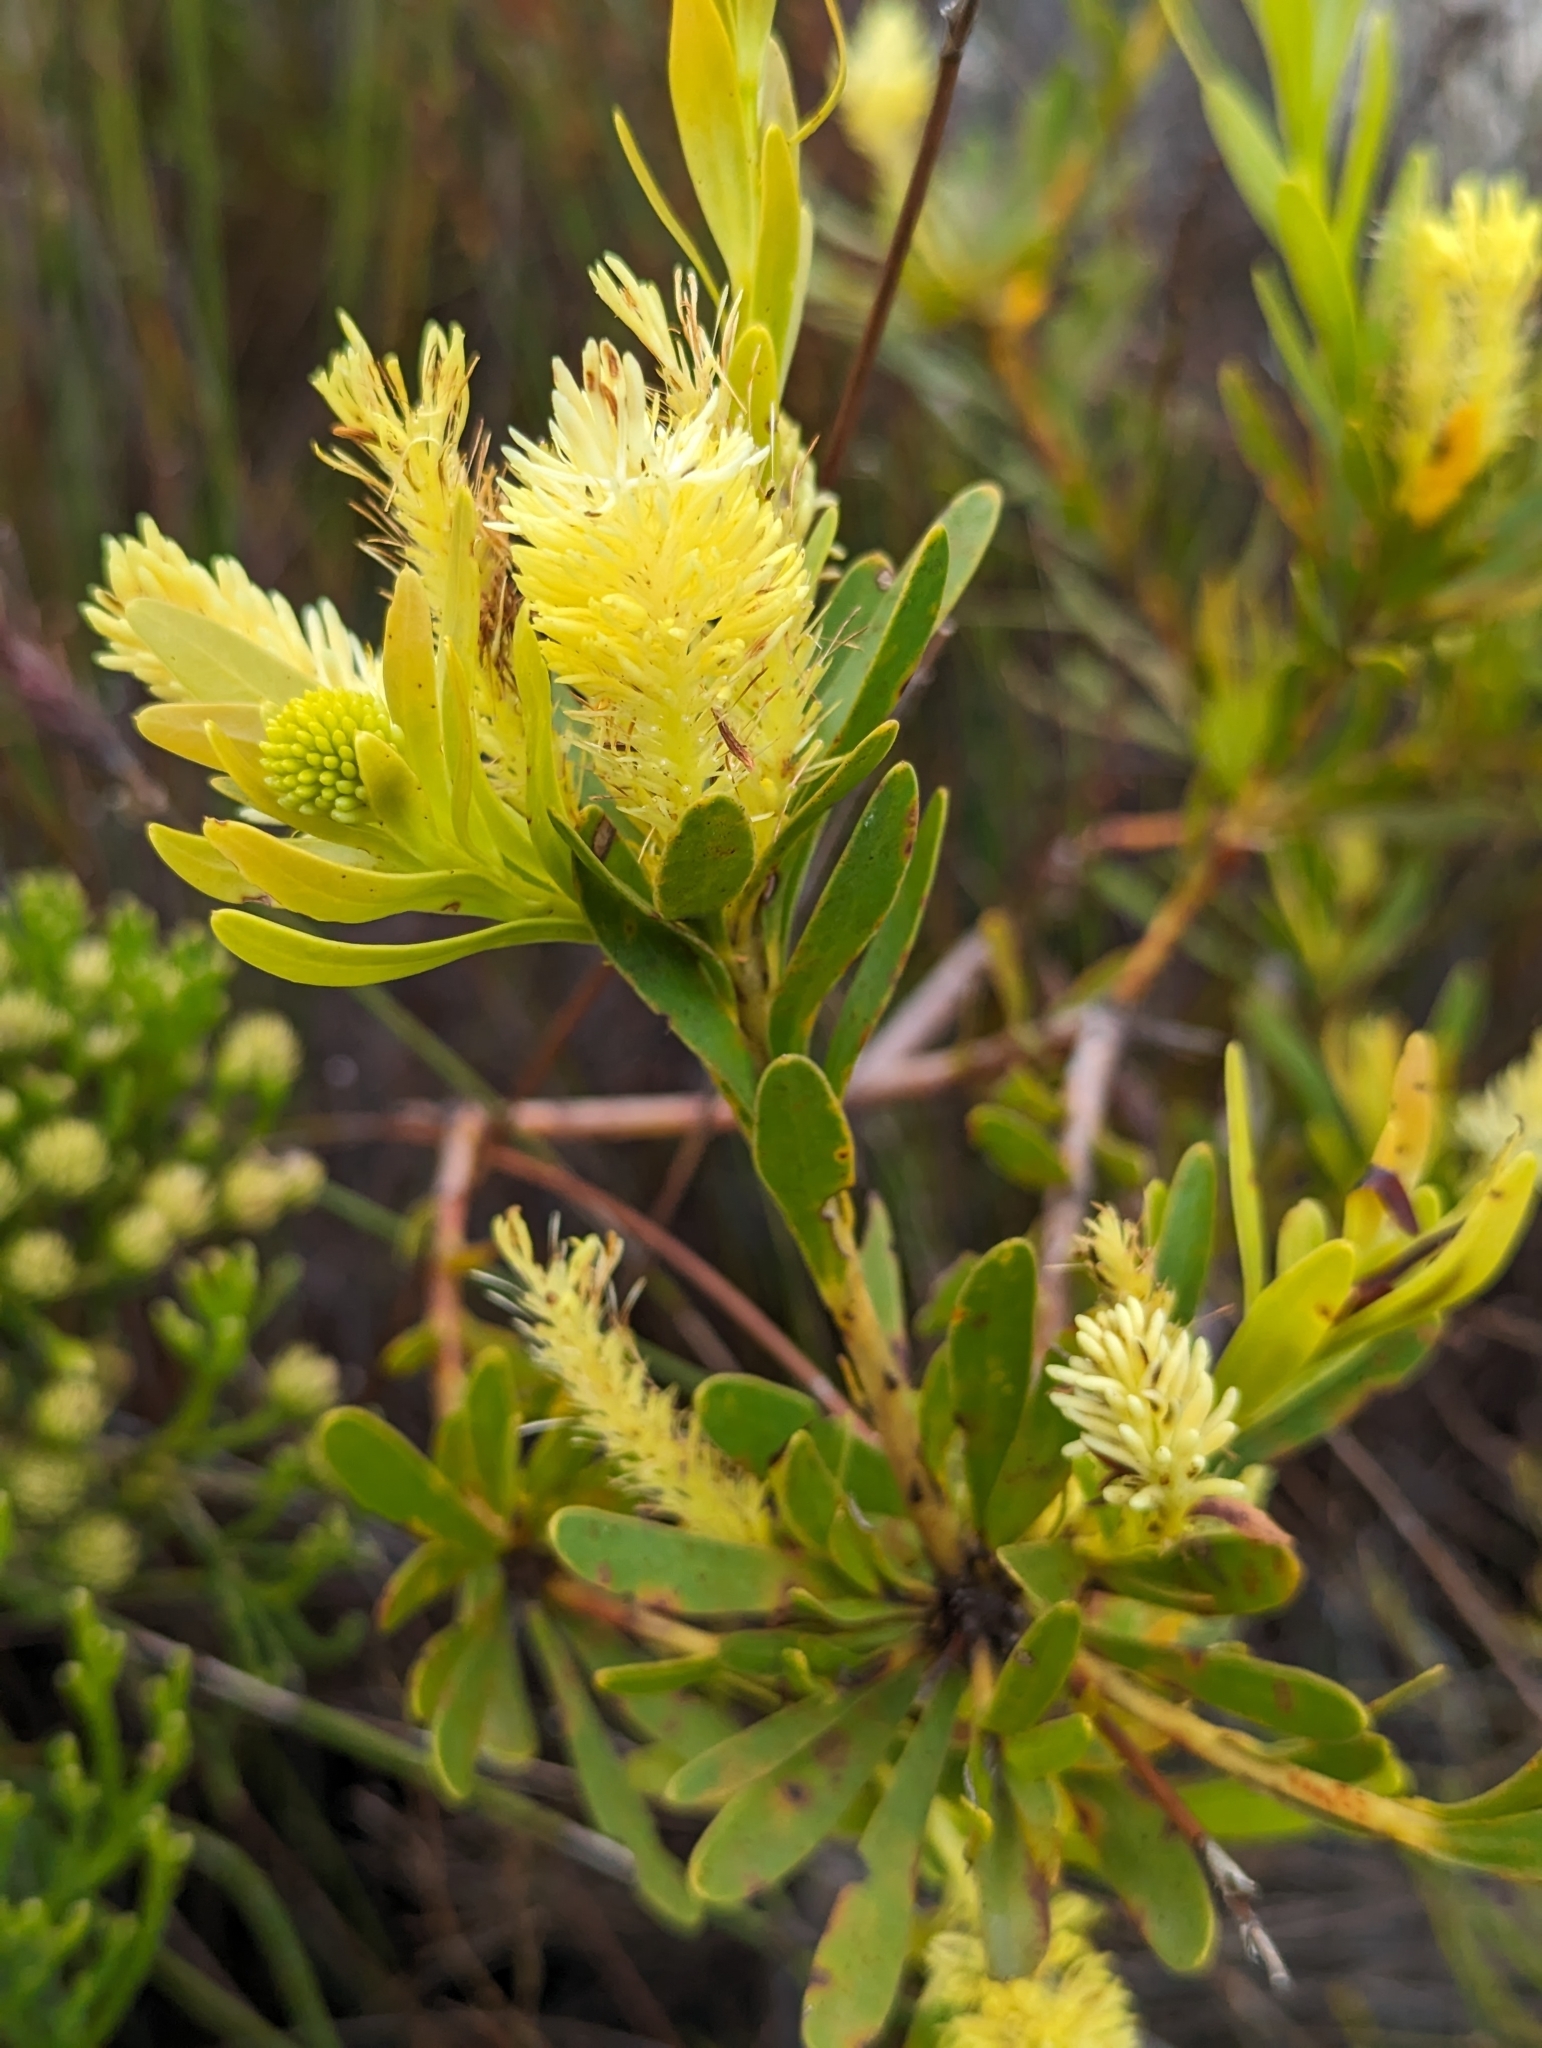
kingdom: Plantae
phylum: Tracheophyta
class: Magnoliopsida
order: Proteales
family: Proteaceae
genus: Aulax
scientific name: Aulax umbellata
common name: Broad-leaf featherbush
